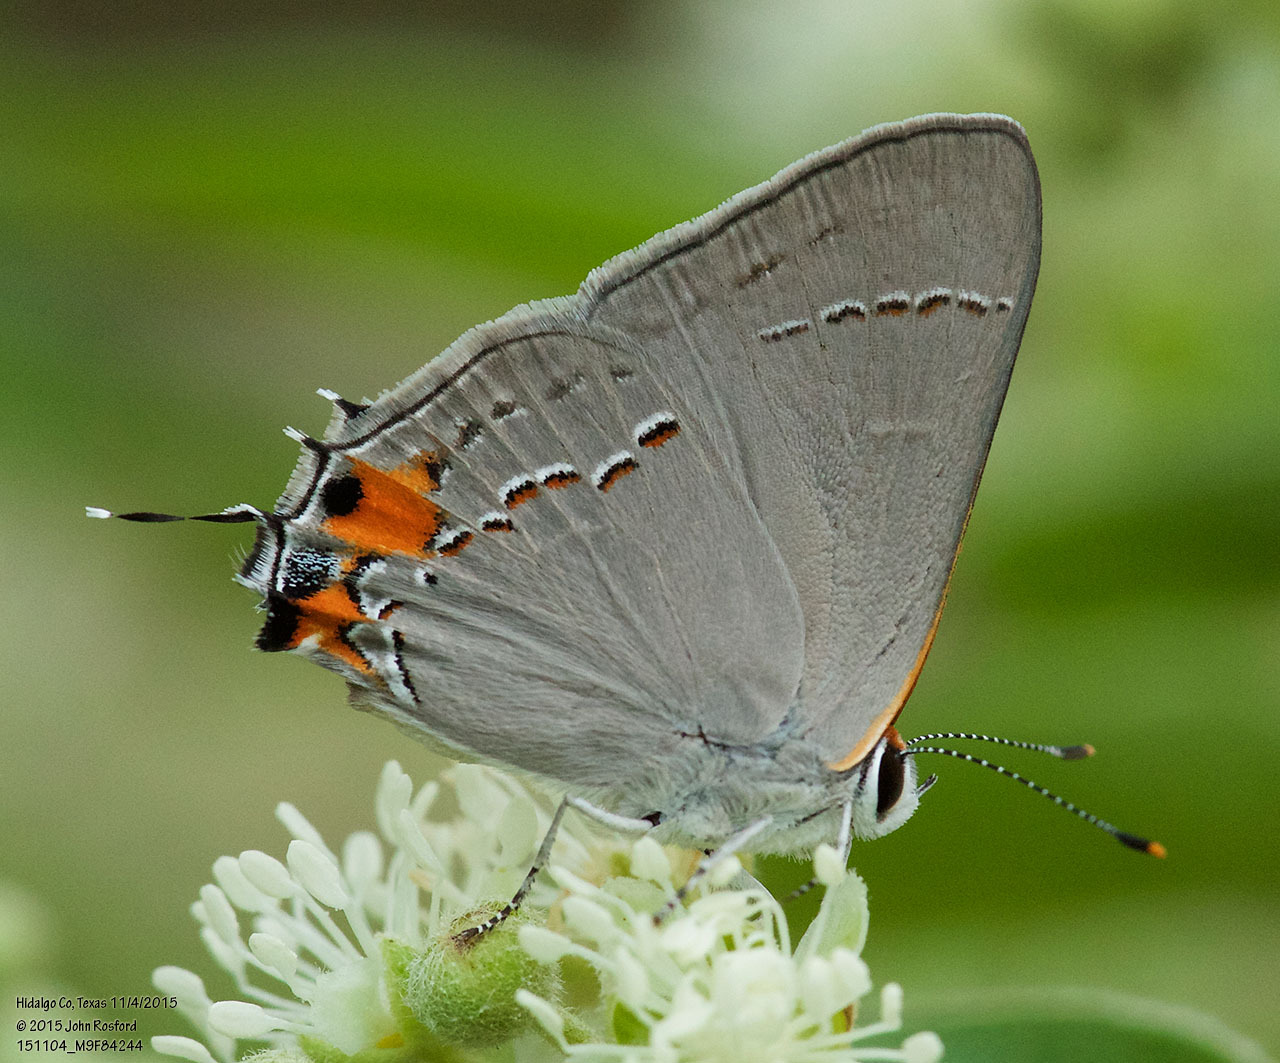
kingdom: Animalia
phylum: Arthropoda
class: Insecta
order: Lepidoptera
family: Lycaenidae
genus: Strymon
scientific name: Strymon melinus
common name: Gray hairstreak
